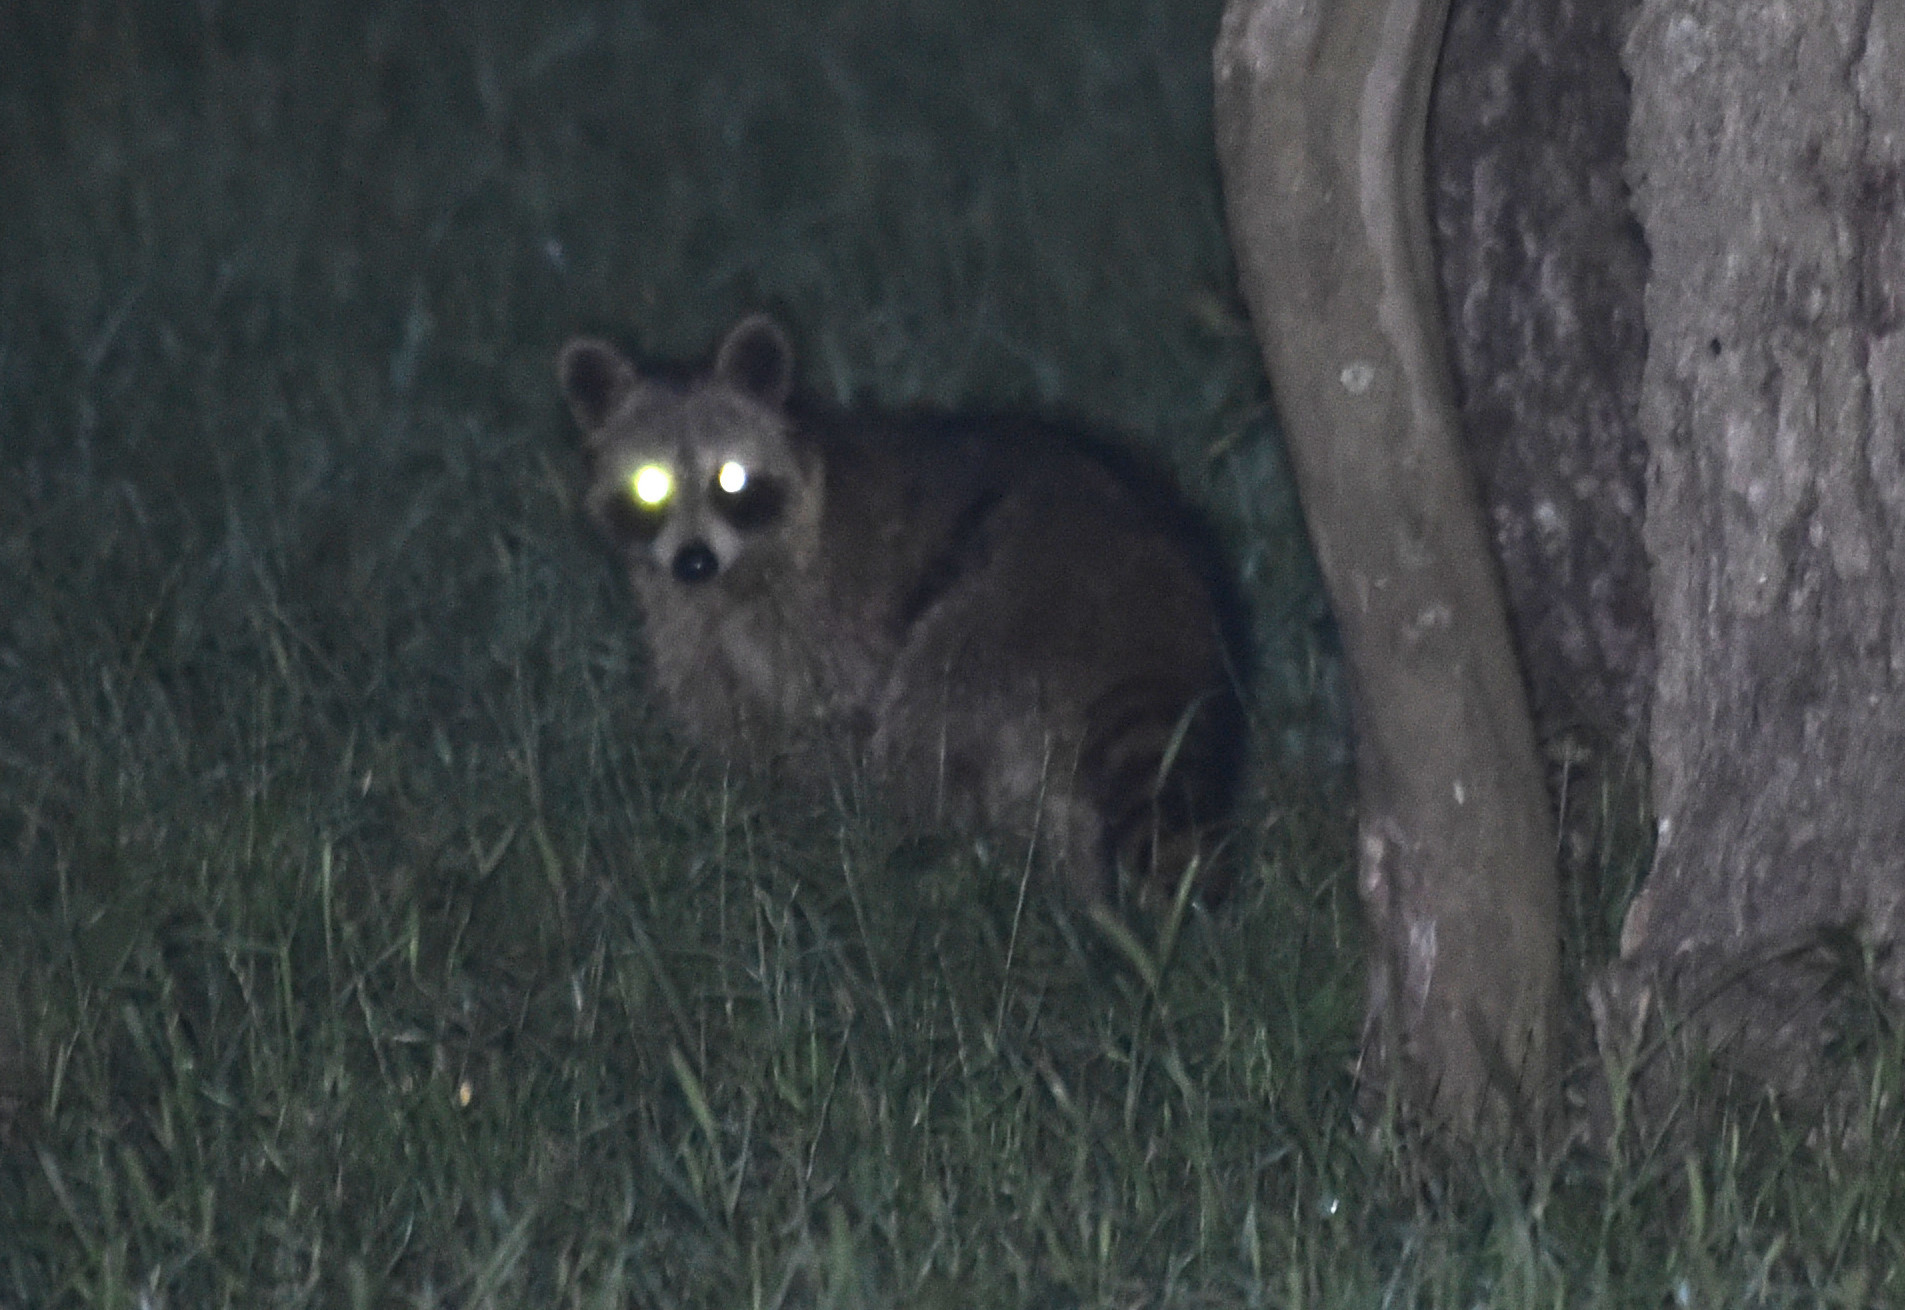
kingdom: Animalia
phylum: Chordata
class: Mammalia
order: Carnivora
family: Procyonidae
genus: Procyon
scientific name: Procyon lotor
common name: Raccoon
